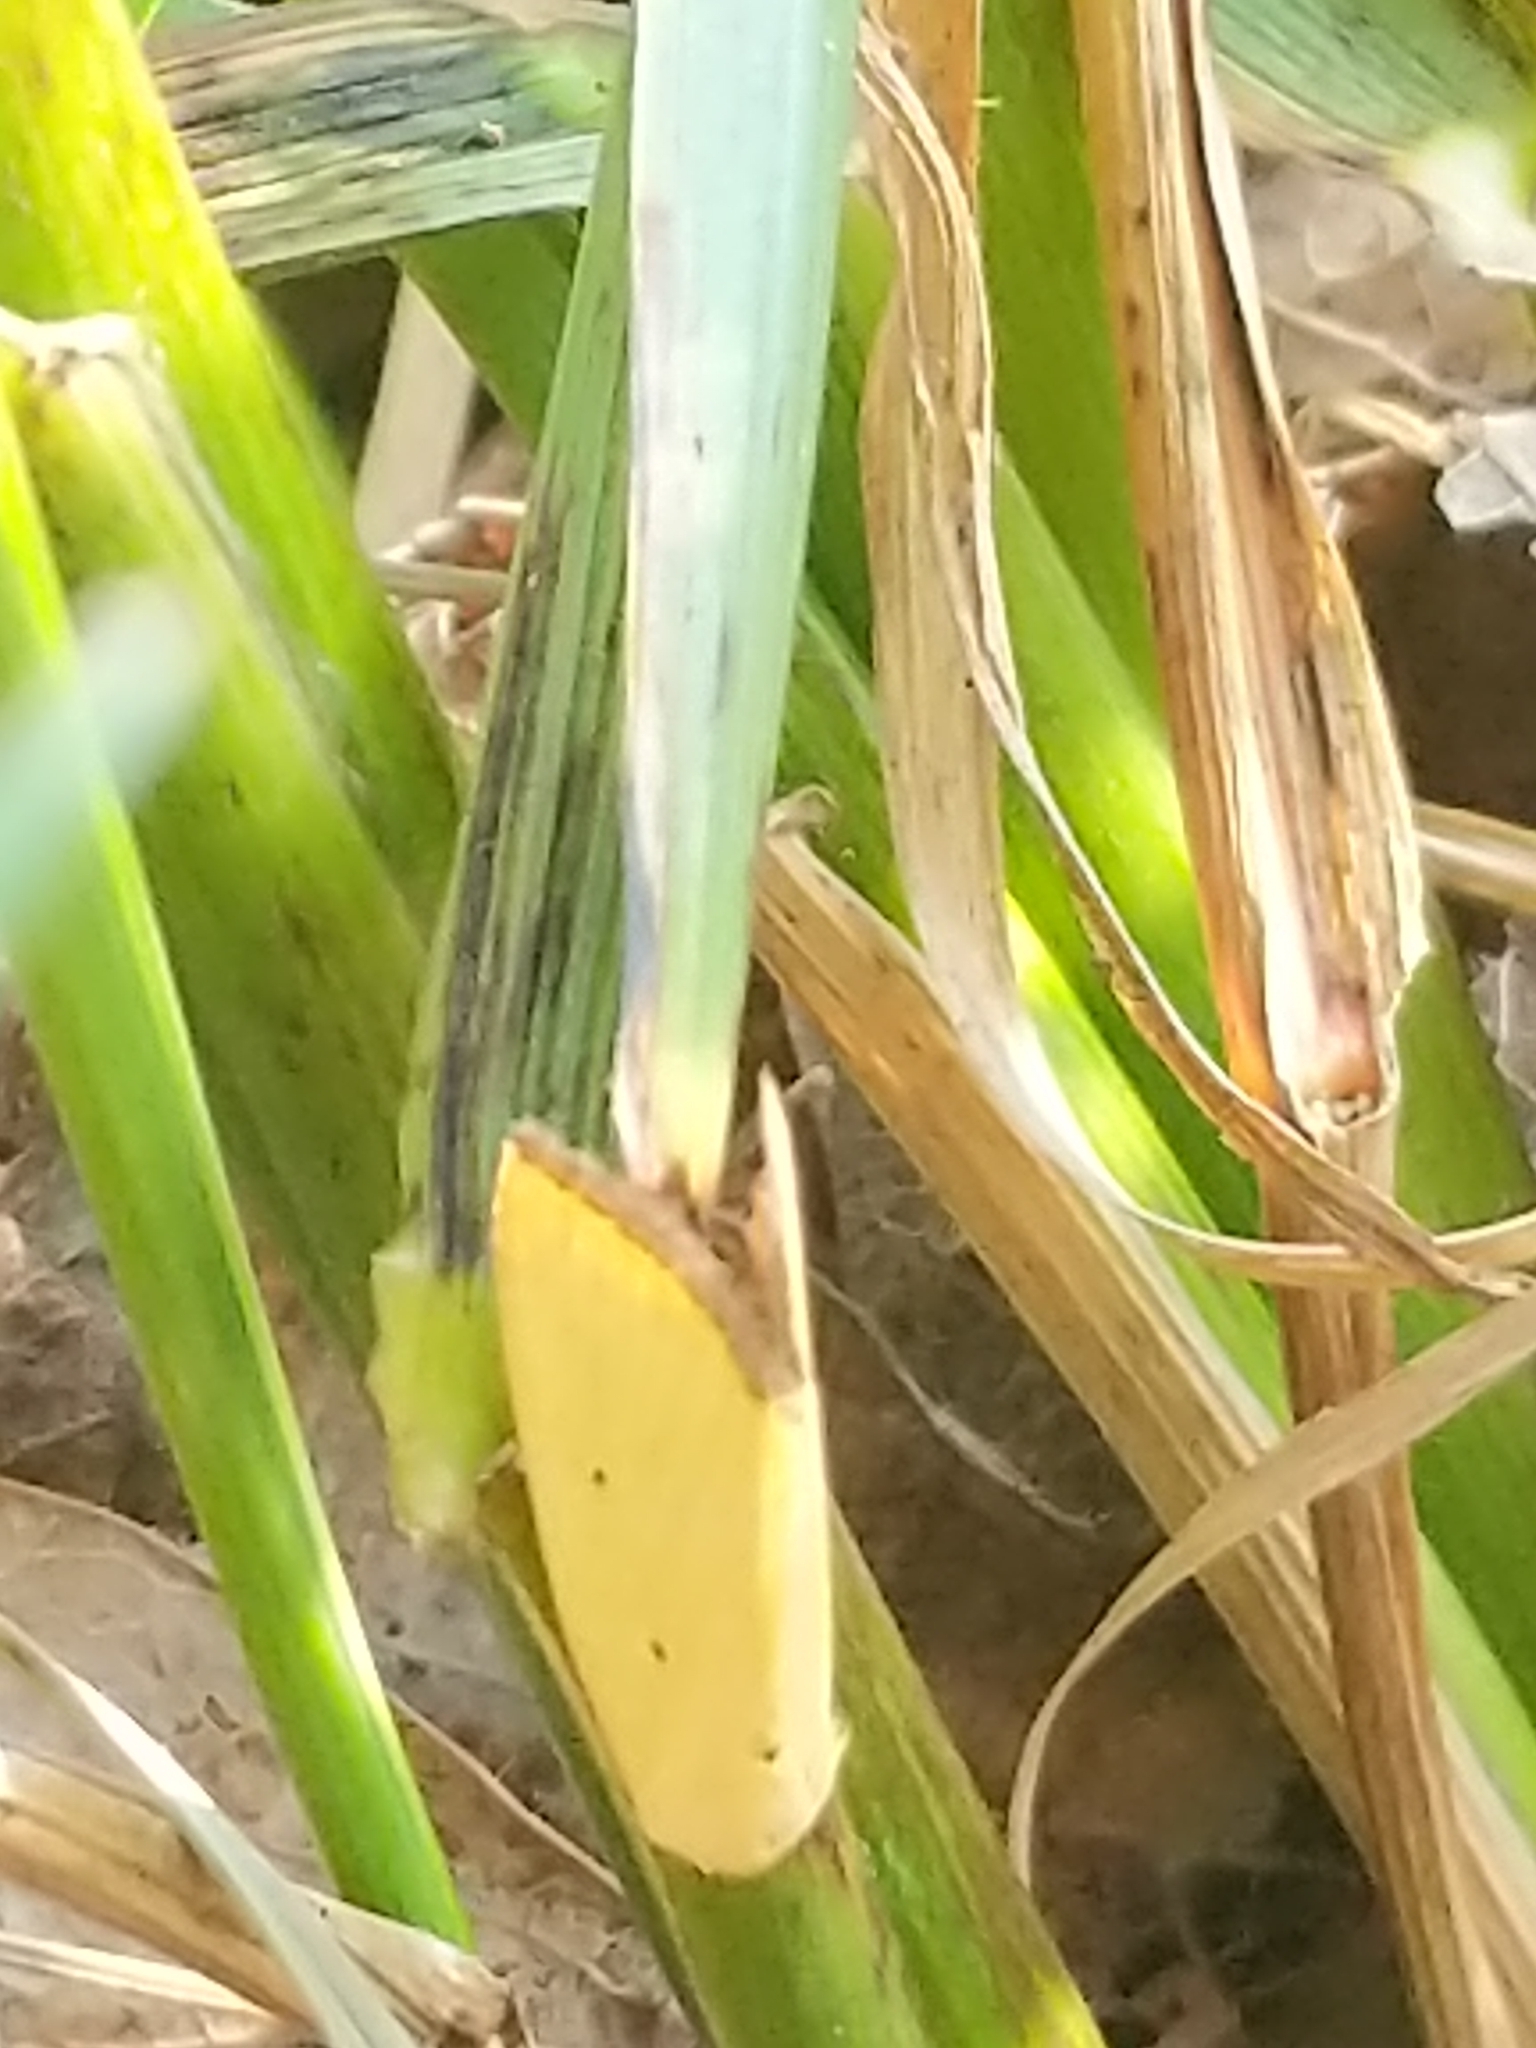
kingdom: Animalia
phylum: Arthropoda
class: Insecta
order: Lepidoptera
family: Noctuidae
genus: Marimatha
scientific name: Marimatha nigrofimbria
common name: Black-bordered lemon moth
